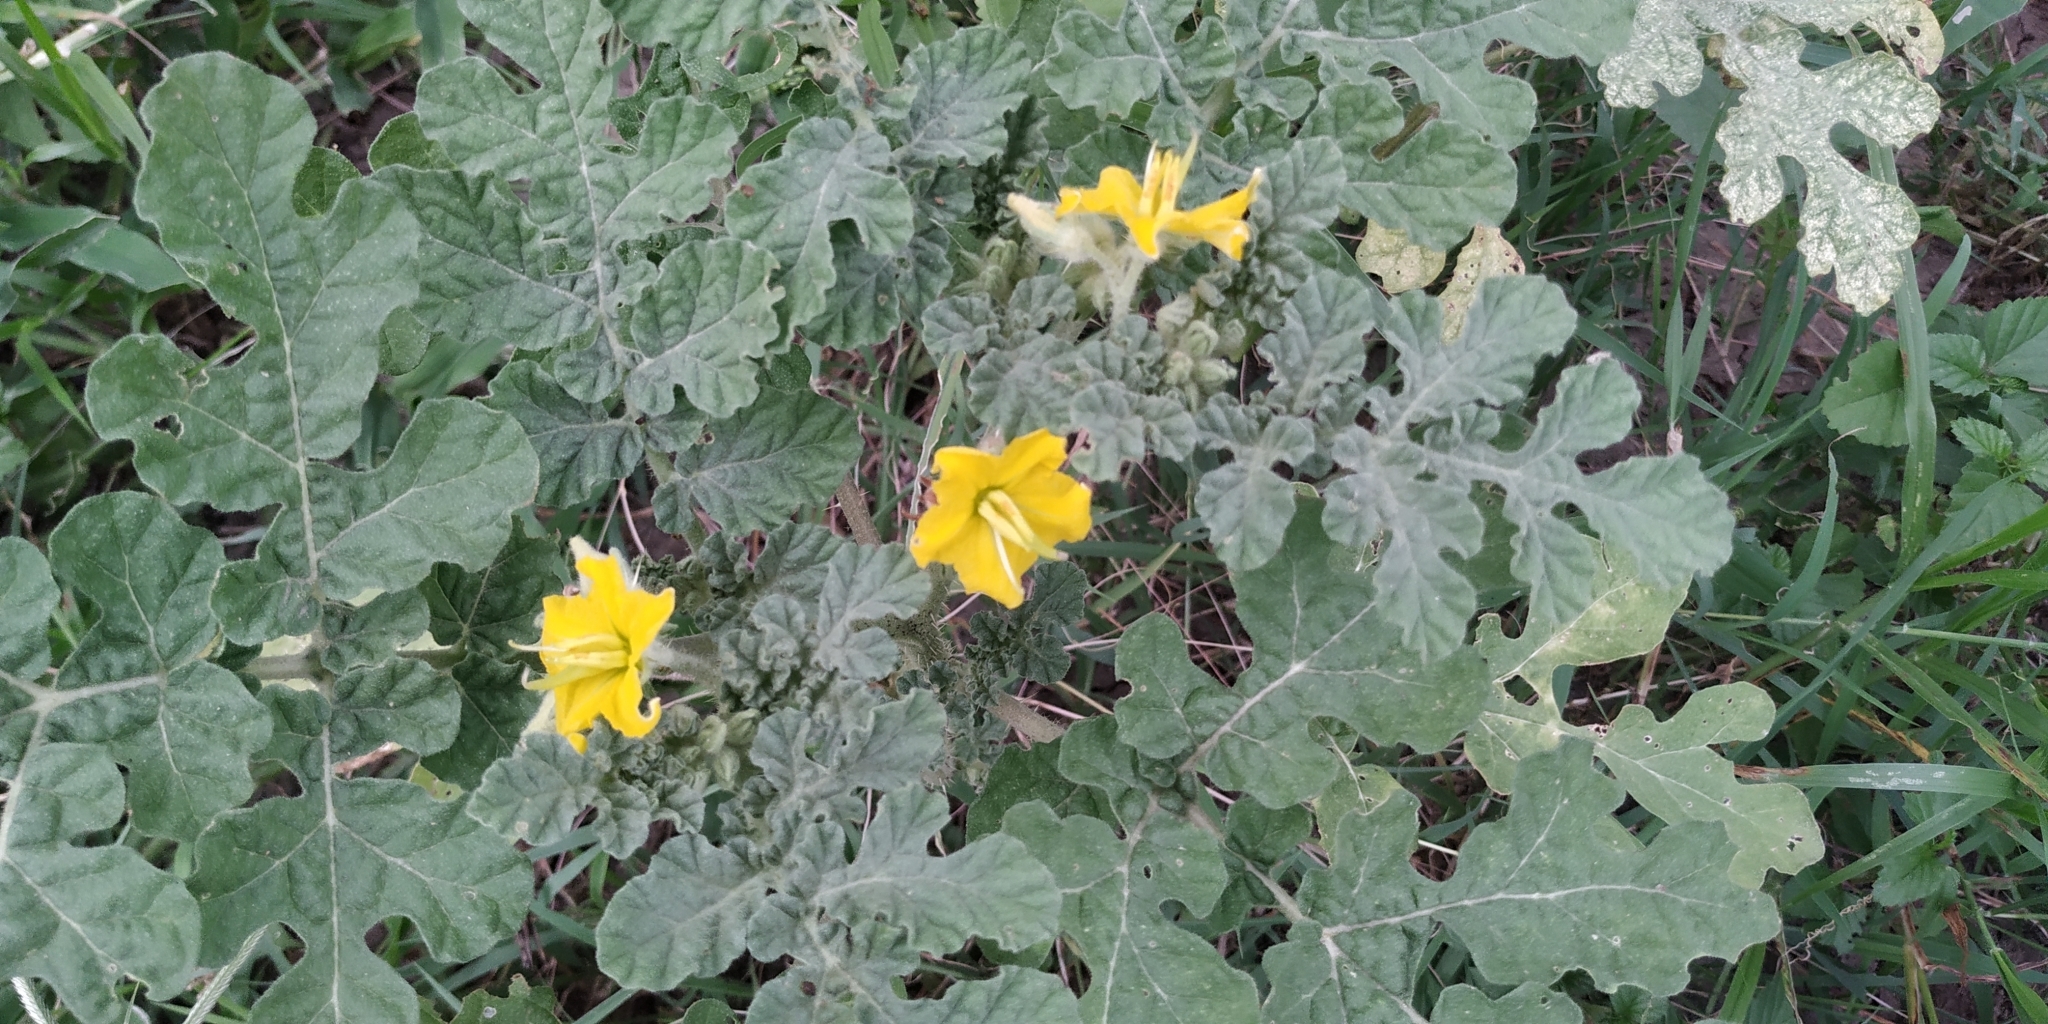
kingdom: Plantae
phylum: Tracheophyta
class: Magnoliopsida
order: Solanales
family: Solanaceae
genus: Solanum
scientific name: Solanum angustifolium
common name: Buffalobur nightshade
